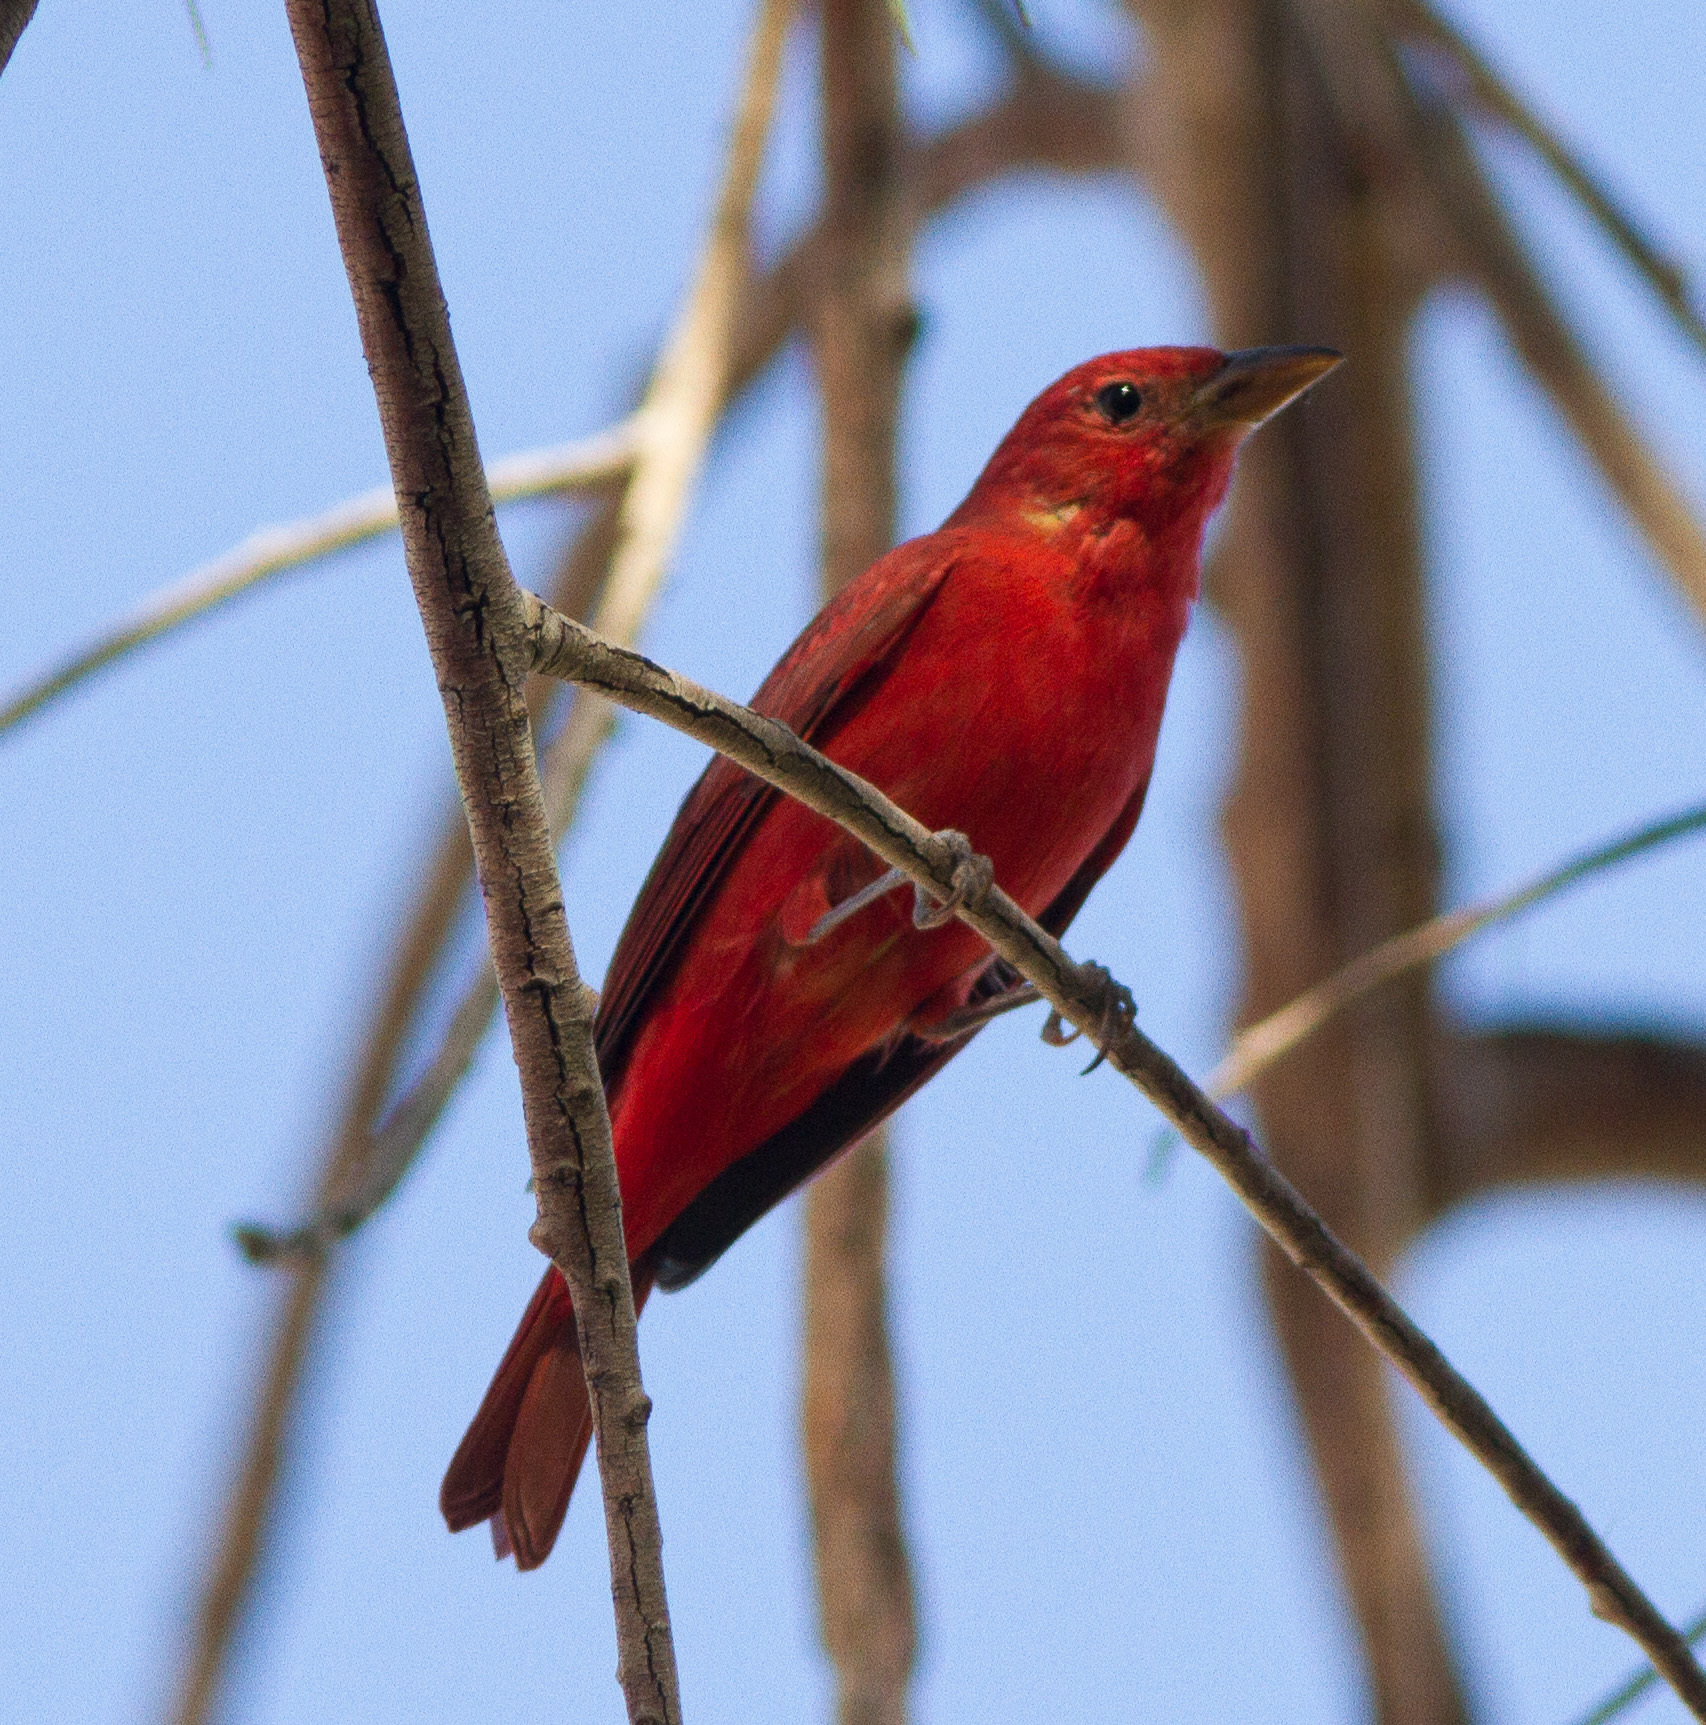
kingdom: Animalia
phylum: Chordata
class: Aves
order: Passeriformes
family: Cardinalidae
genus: Piranga
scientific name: Piranga rubra
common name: Summer tanager
